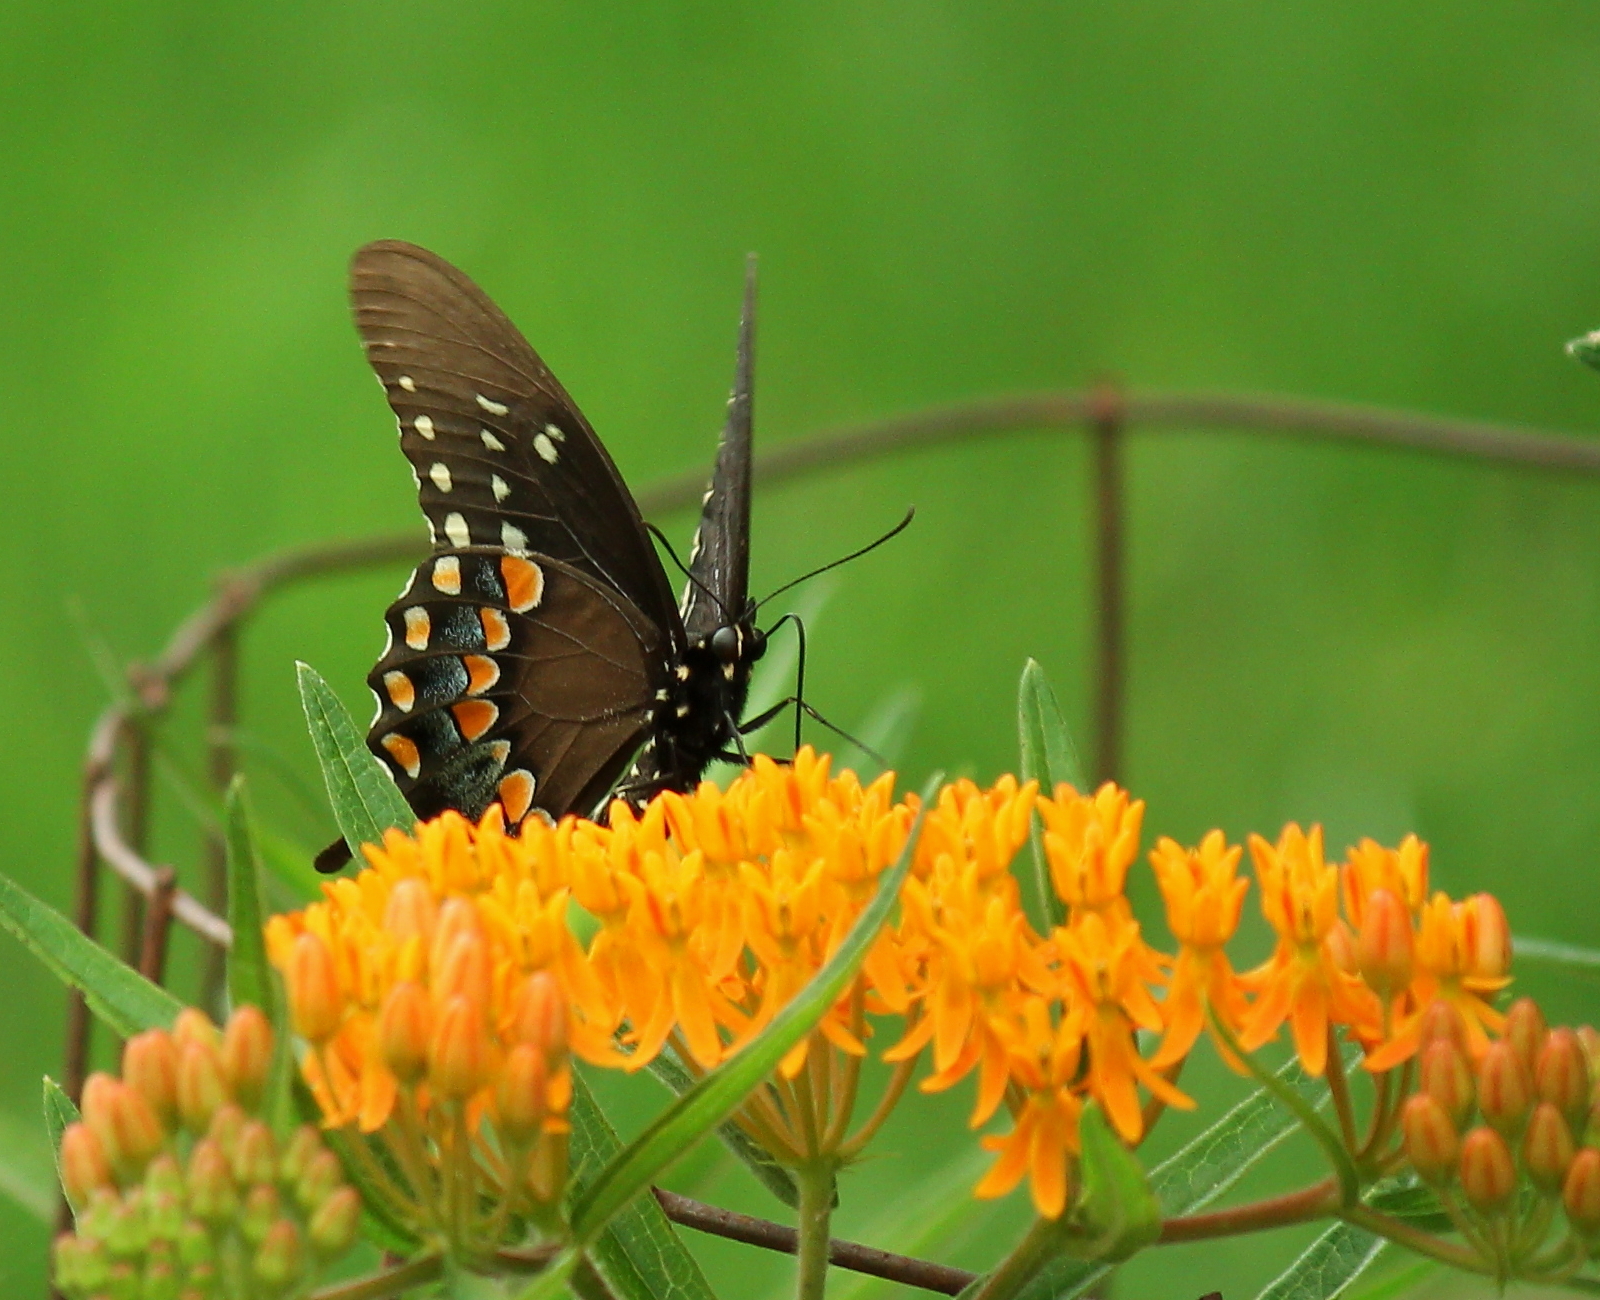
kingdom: Animalia
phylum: Arthropoda
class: Insecta
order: Lepidoptera
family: Papilionidae
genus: Papilio
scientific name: Papilio troilus
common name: Spicebush swallowtail
